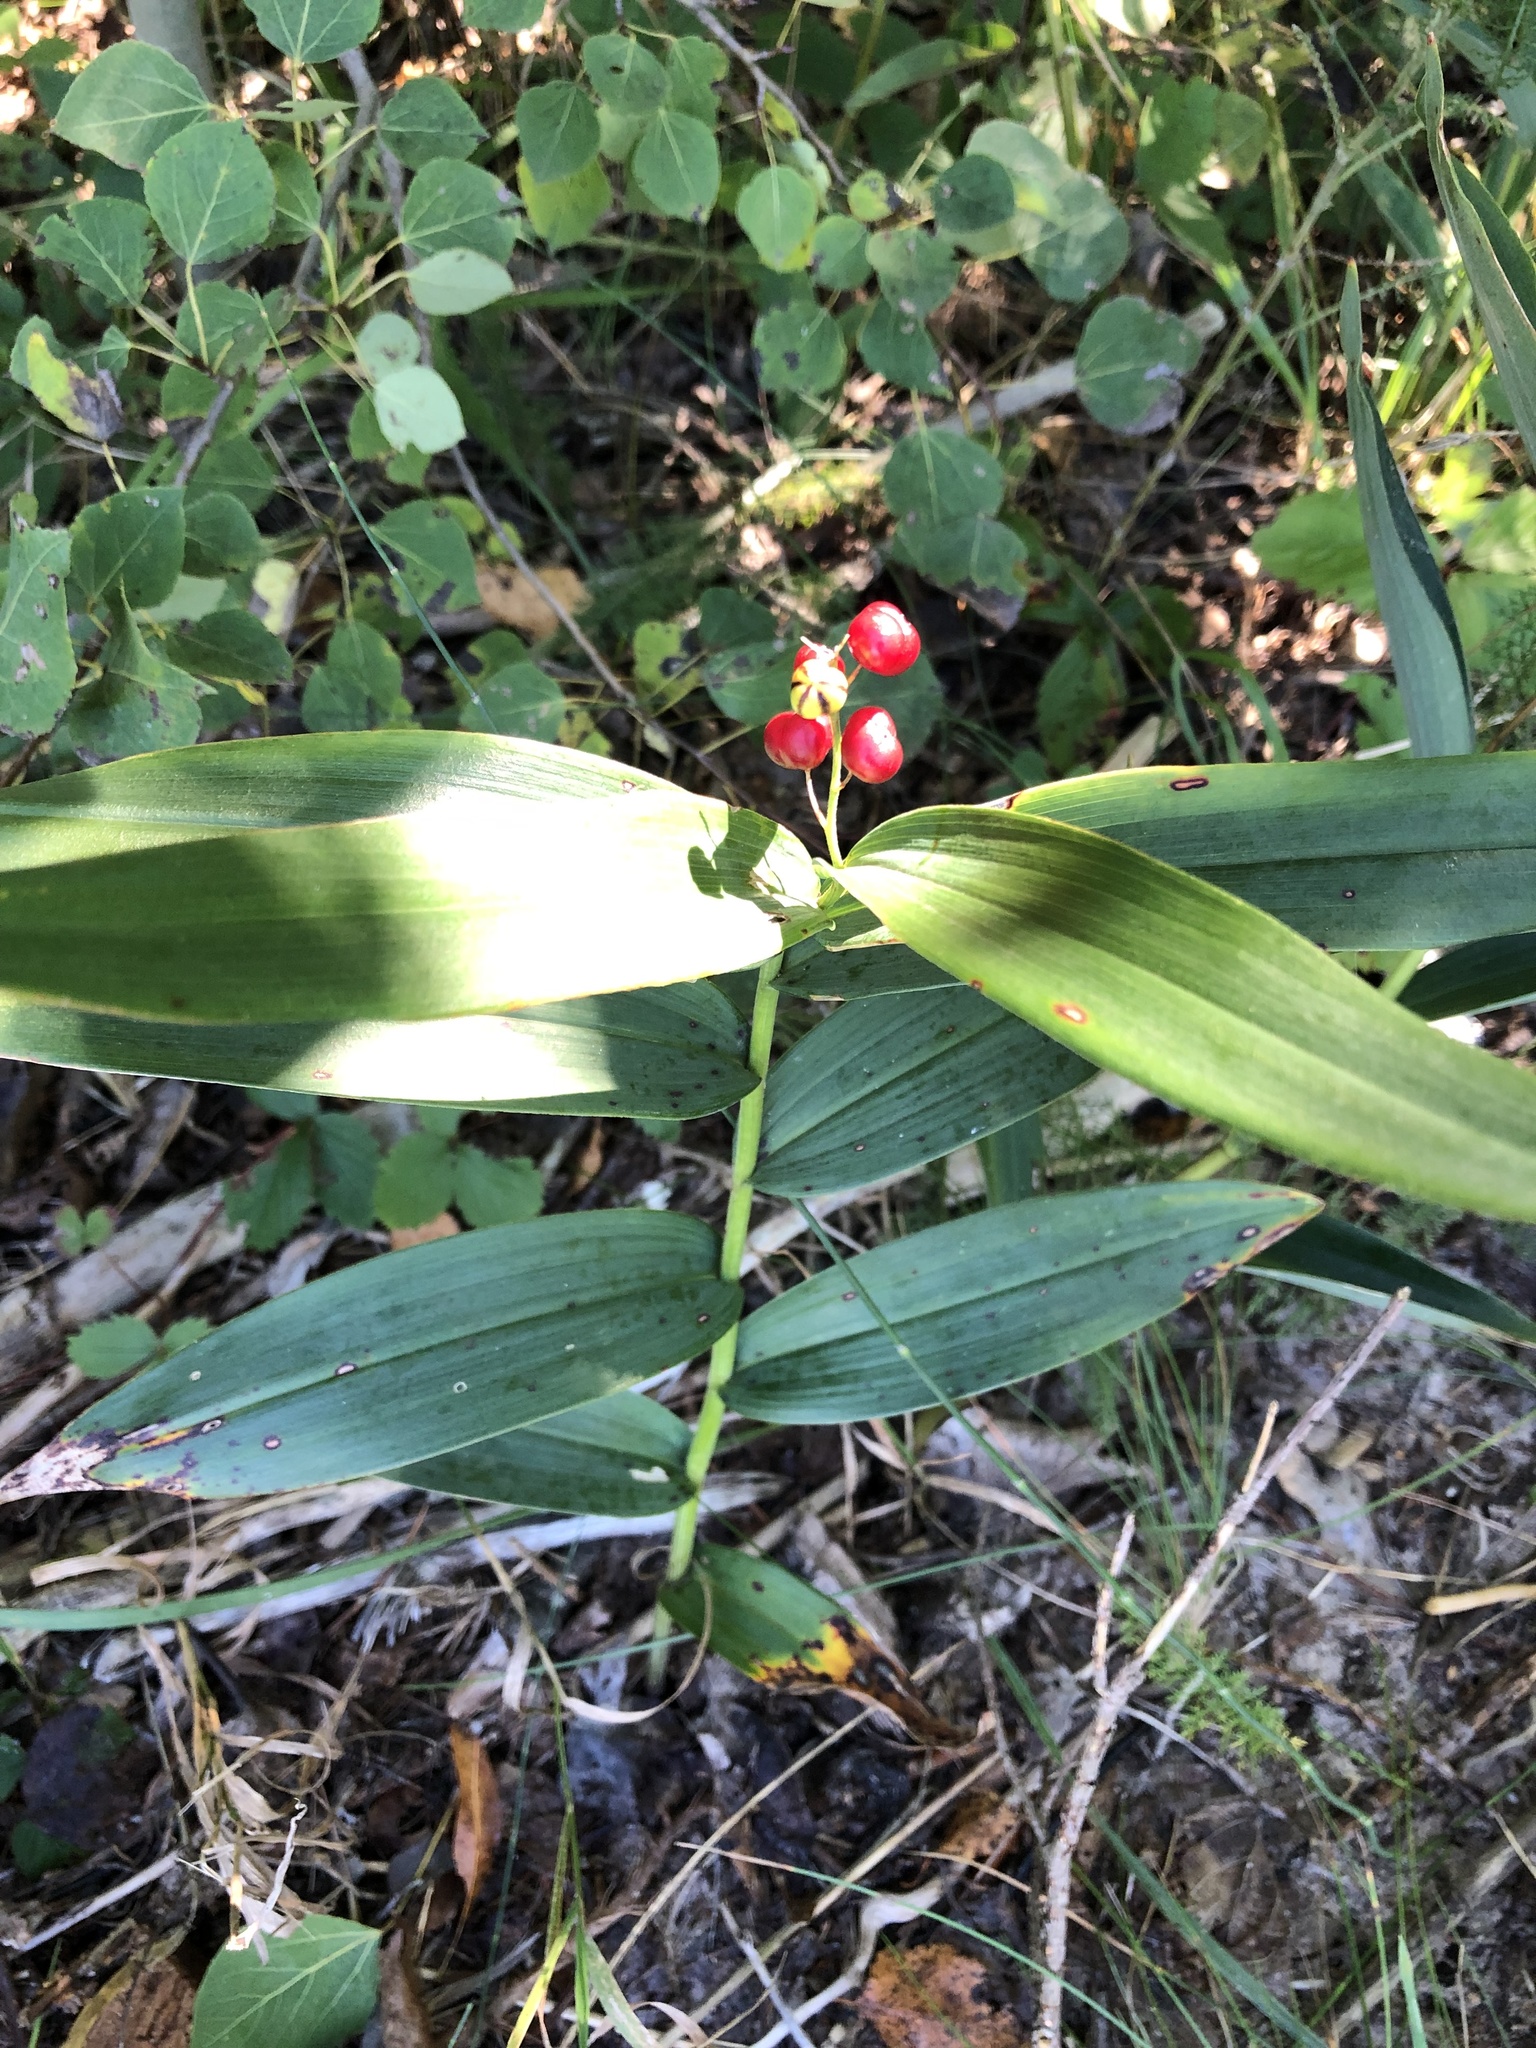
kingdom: Plantae
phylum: Tracheophyta
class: Liliopsida
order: Asparagales
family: Asparagaceae
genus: Maianthemum
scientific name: Maianthemum stellatum
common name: Little false solomon's seal
